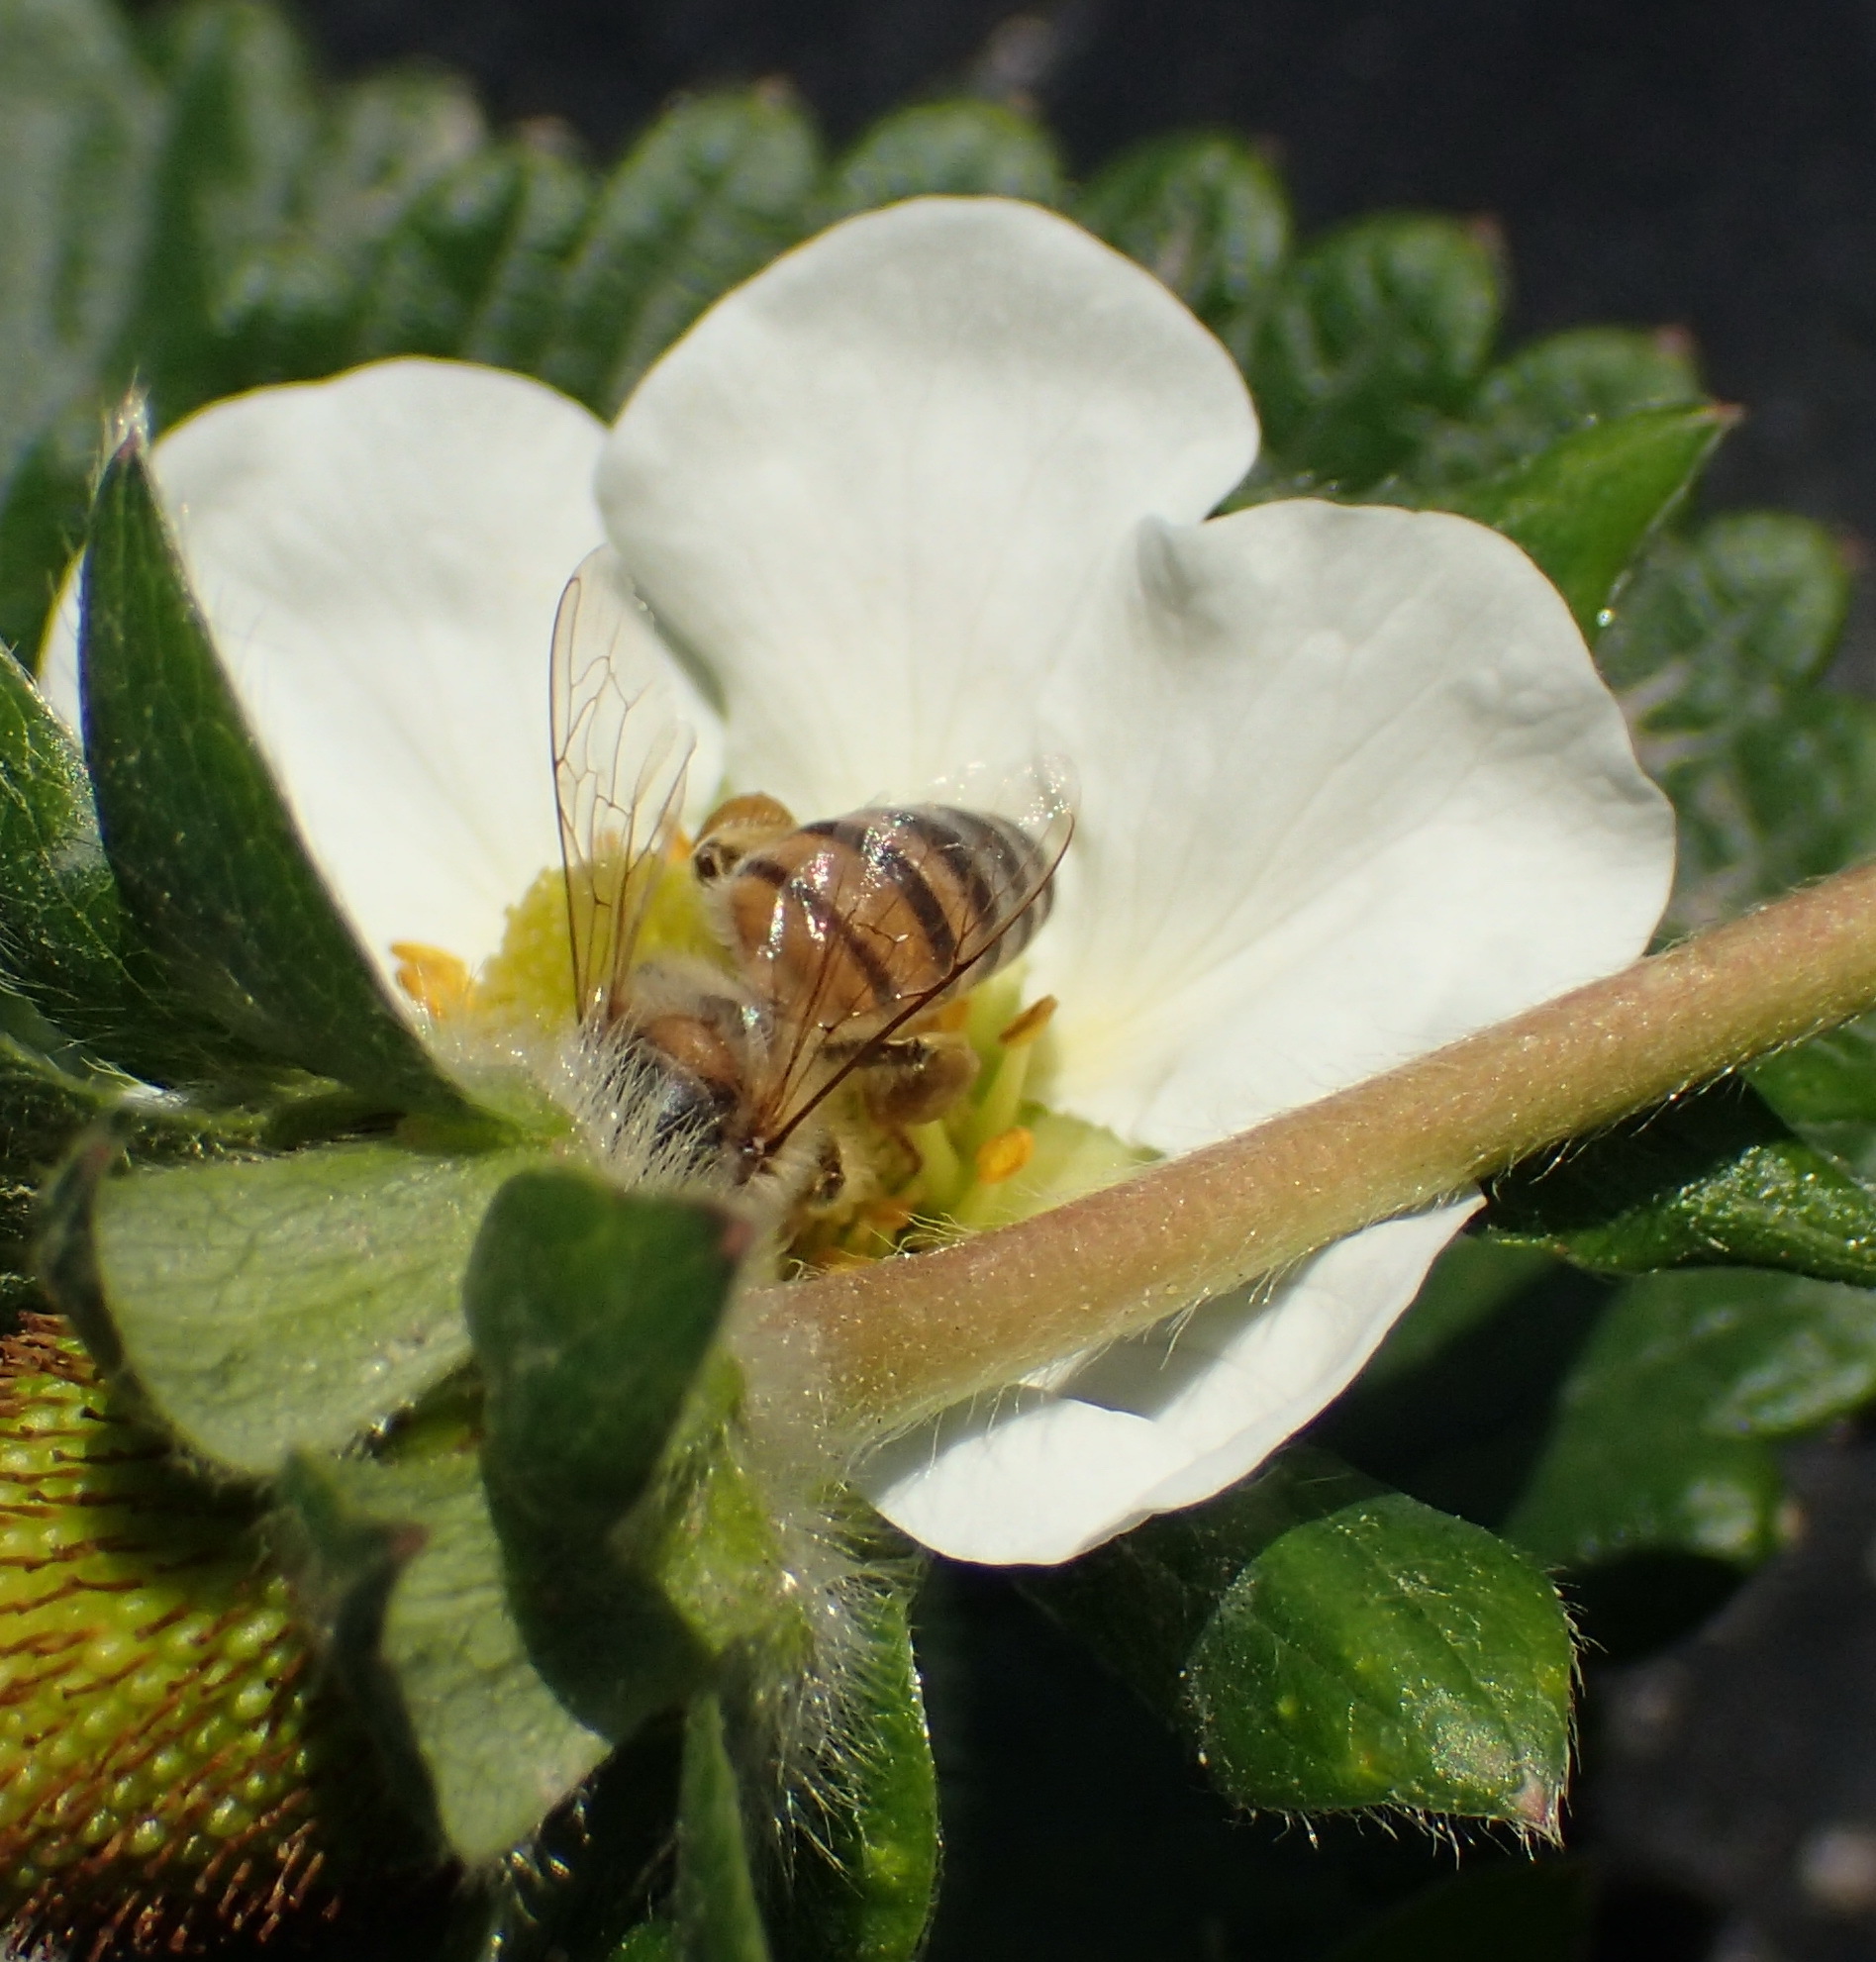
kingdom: Animalia
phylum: Arthropoda
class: Insecta
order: Hymenoptera
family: Apidae
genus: Apis
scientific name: Apis mellifera
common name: Honey bee
